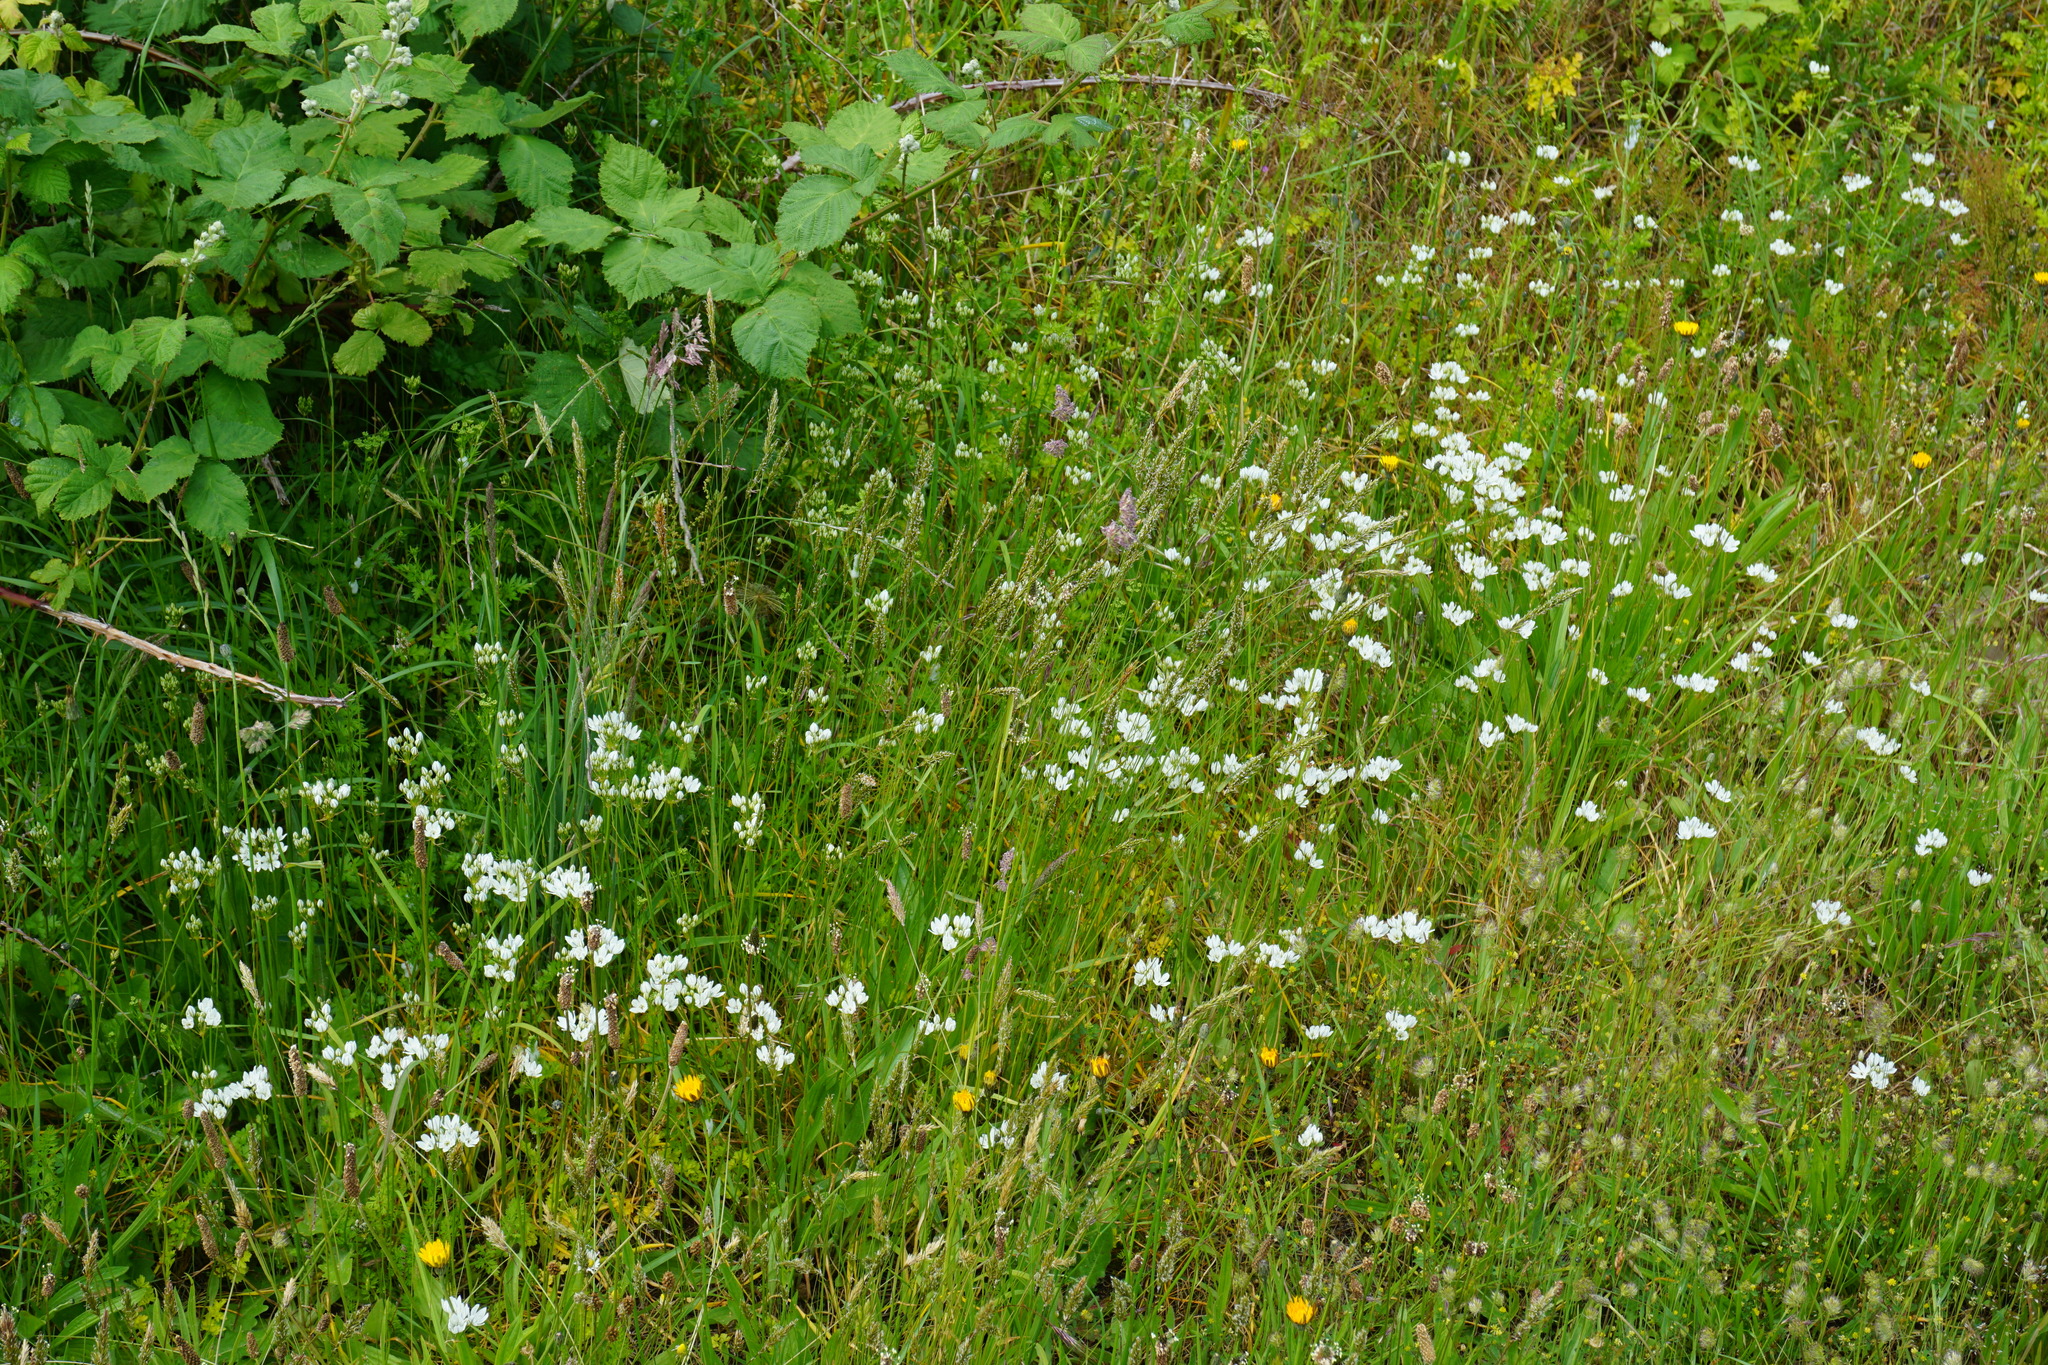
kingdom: Plantae
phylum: Tracheophyta
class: Liliopsida
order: Asparagales
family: Asparagaceae
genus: Triteleia
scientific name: Triteleia hyacinthina
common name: White brodiaea
